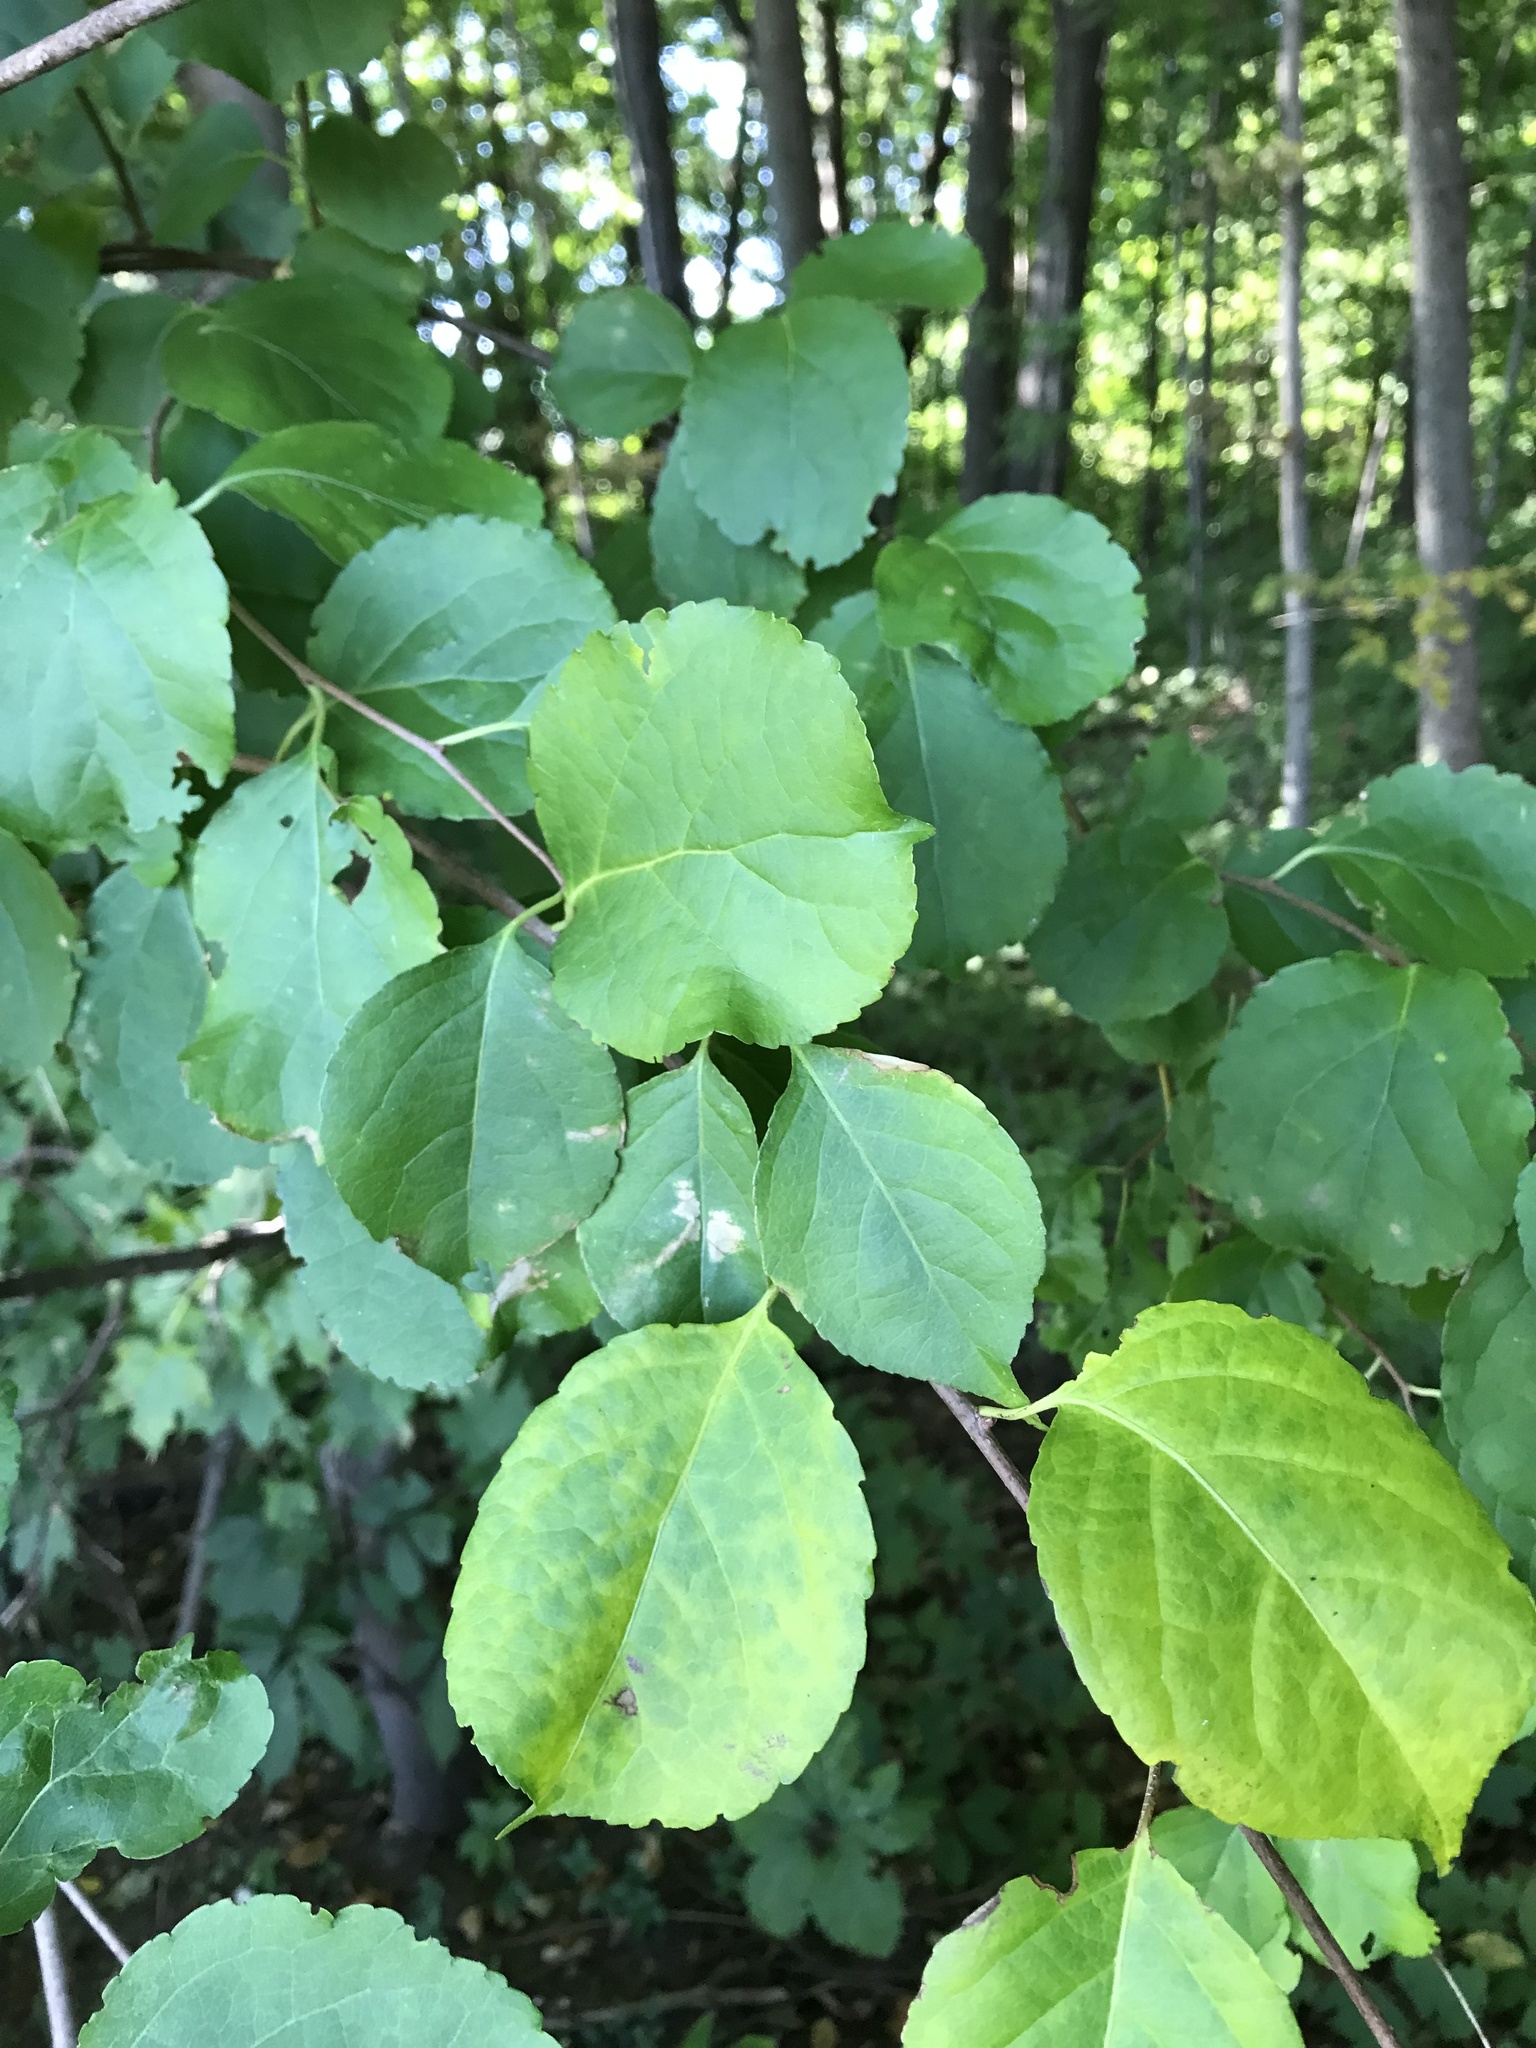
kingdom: Plantae
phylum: Tracheophyta
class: Magnoliopsida
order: Celastrales
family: Celastraceae
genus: Celastrus
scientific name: Celastrus orbiculatus
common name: Oriental bittersweet
